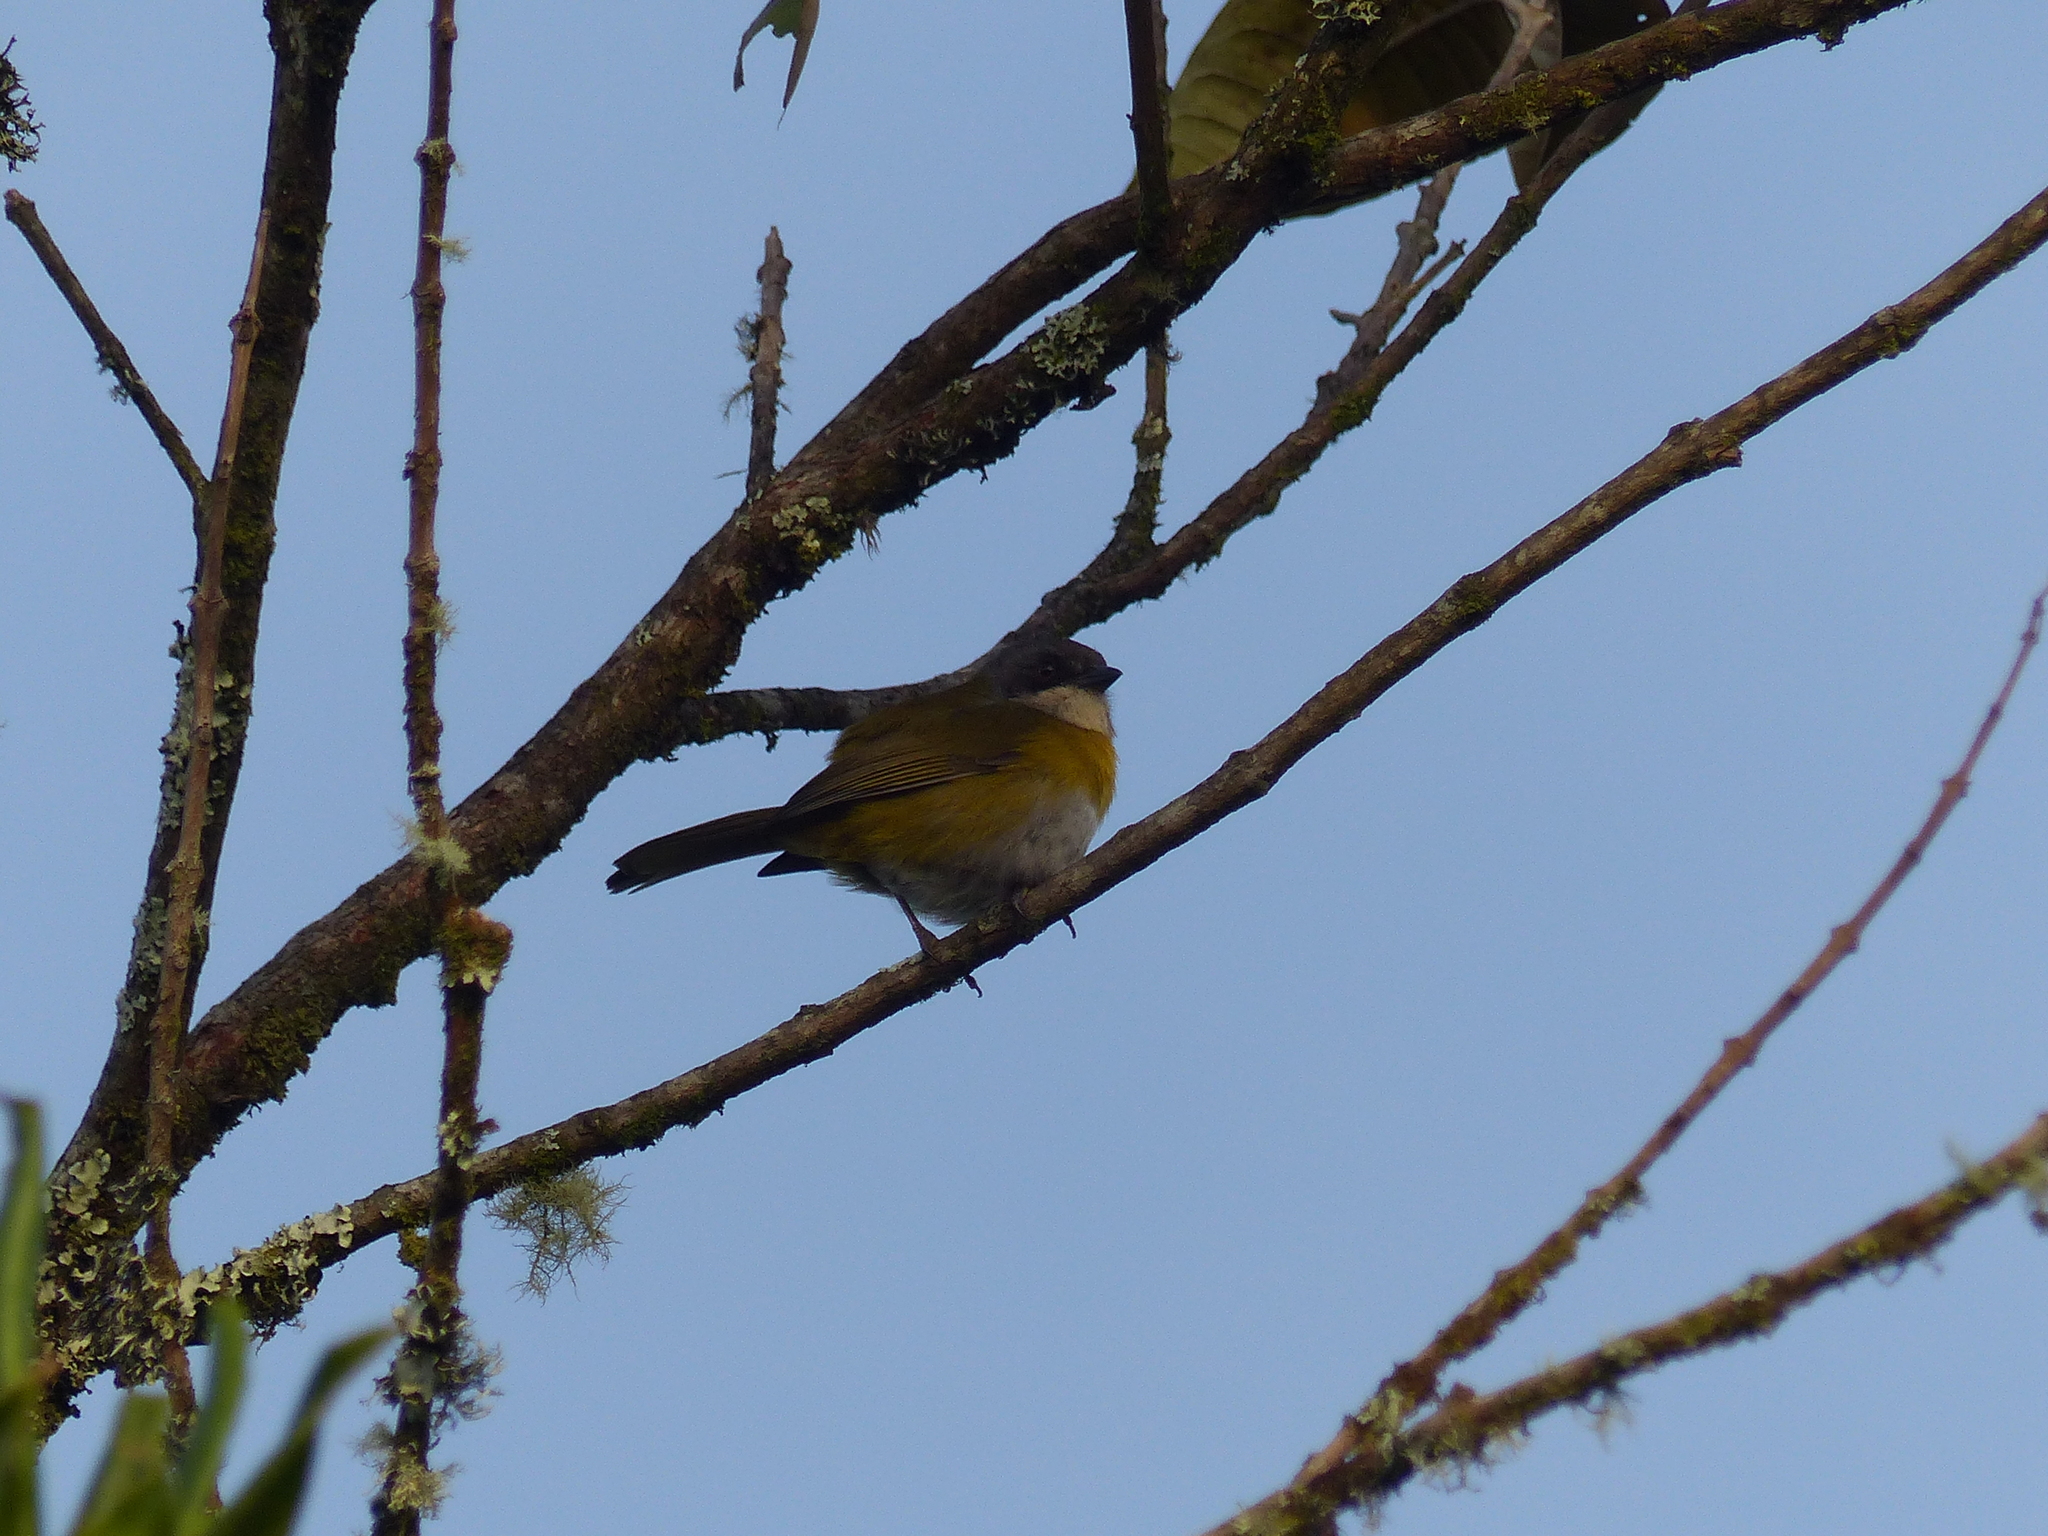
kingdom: Animalia
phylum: Chordata
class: Aves
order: Passeriformes
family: Passerellidae
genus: Chlorospingus
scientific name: Chlorospingus flavopectus
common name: Common chlorospingus
